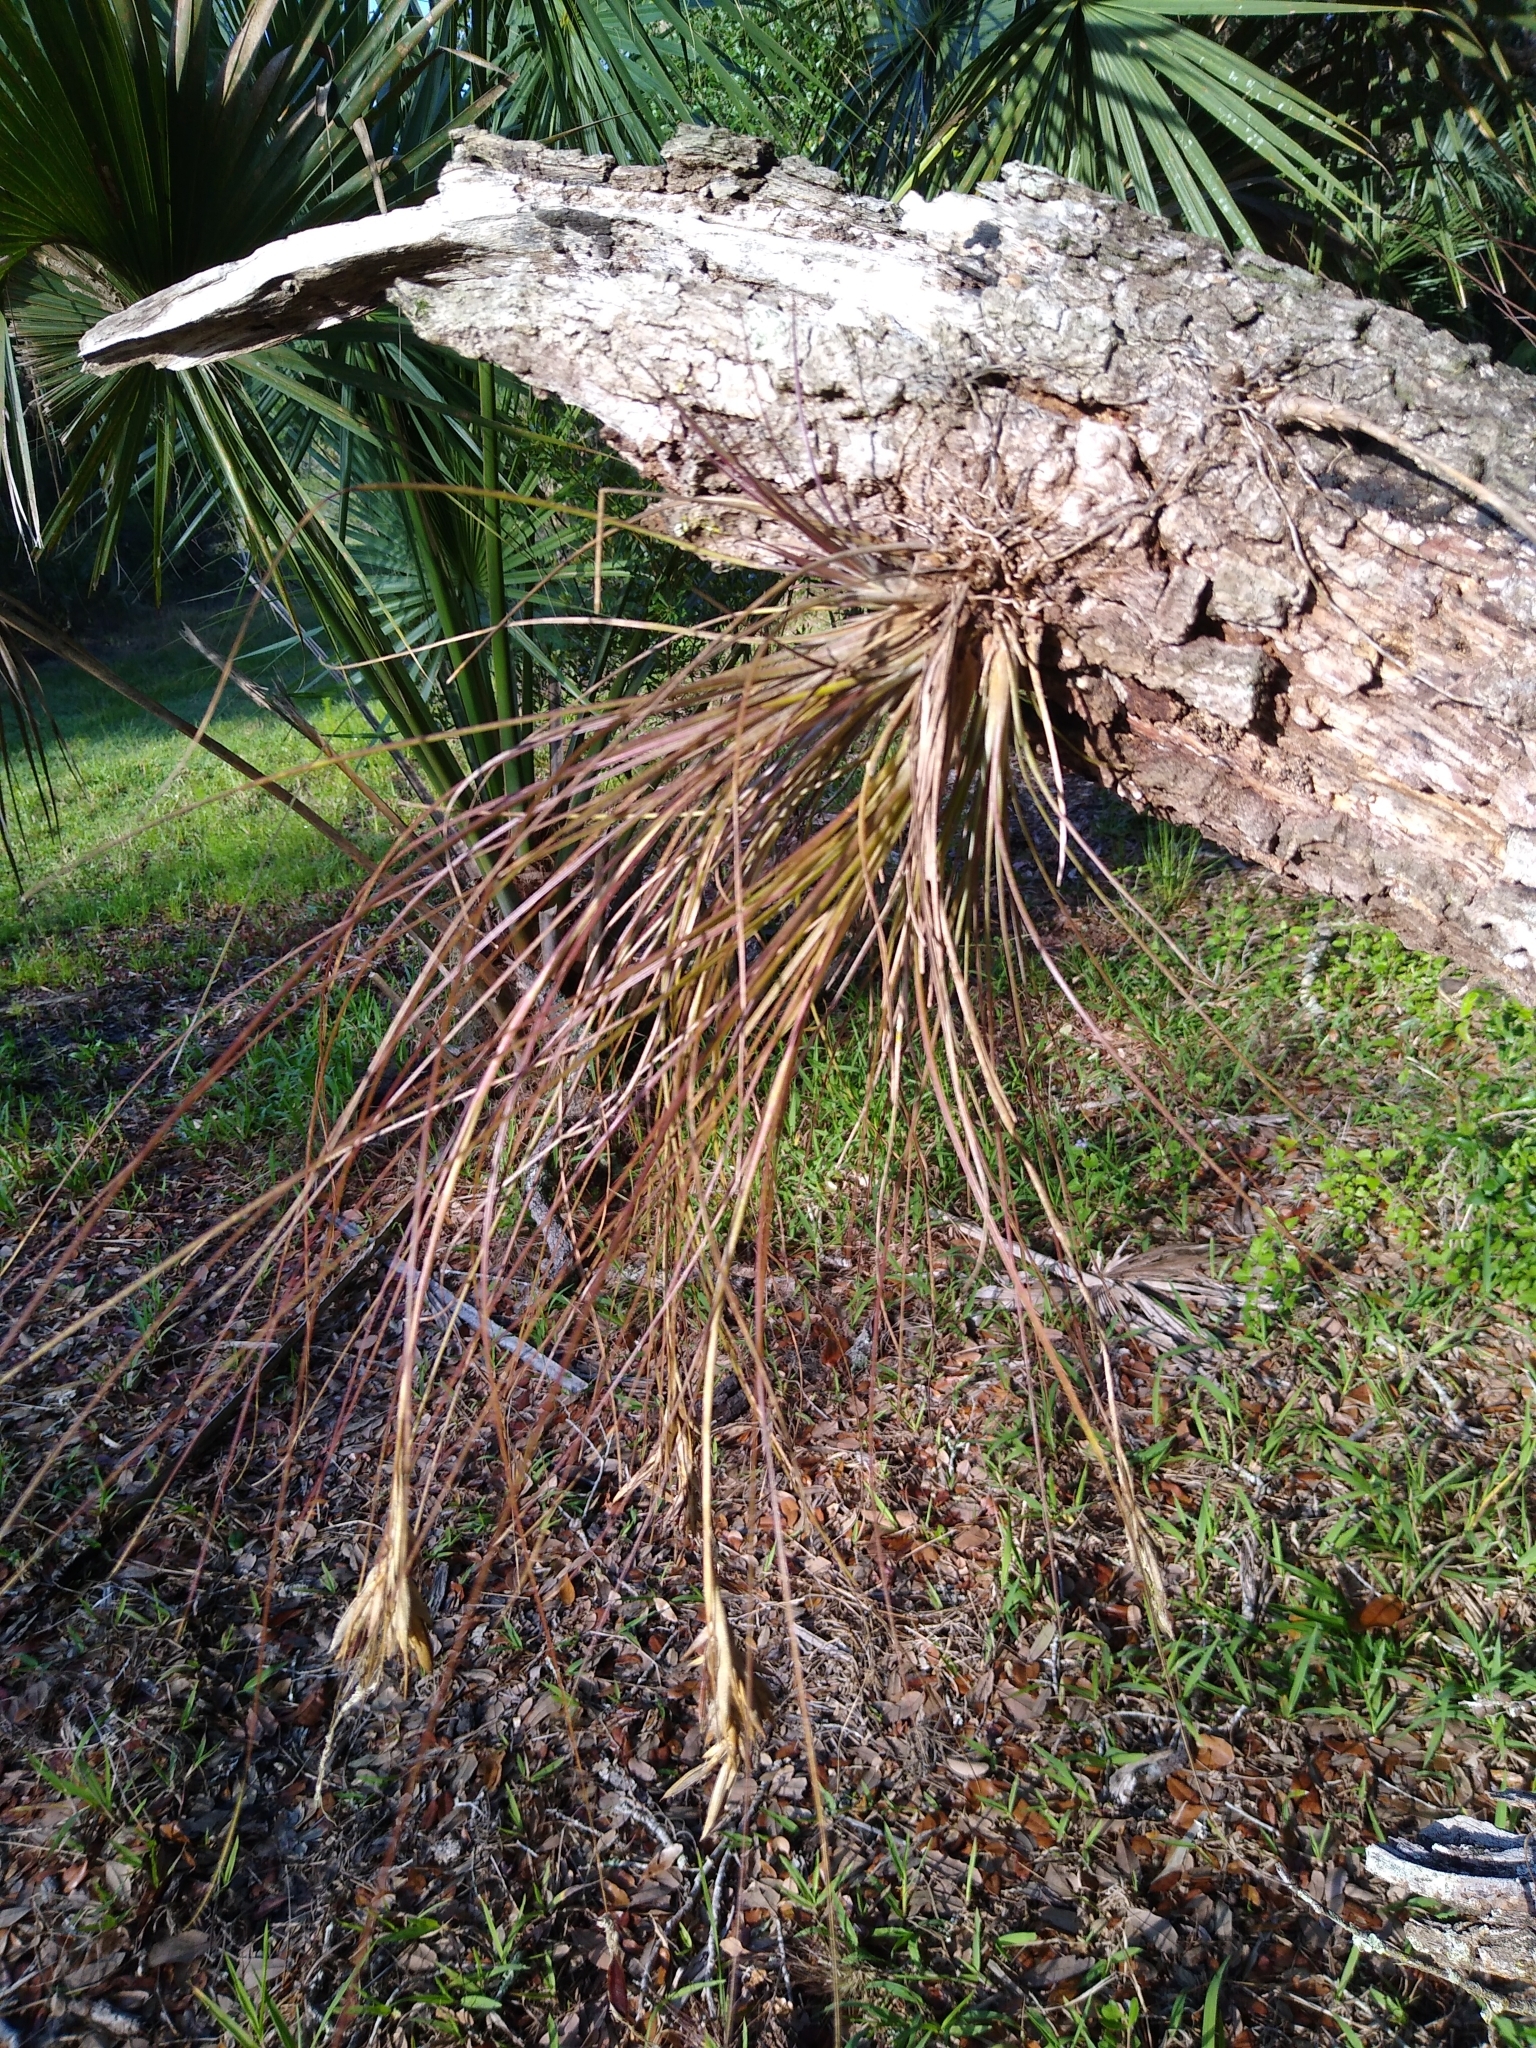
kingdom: Plantae
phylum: Tracheophyta
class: Liliopsida
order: Poales
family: Bromeliaceae
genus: Tillandsia
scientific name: Tillandsia setacea
